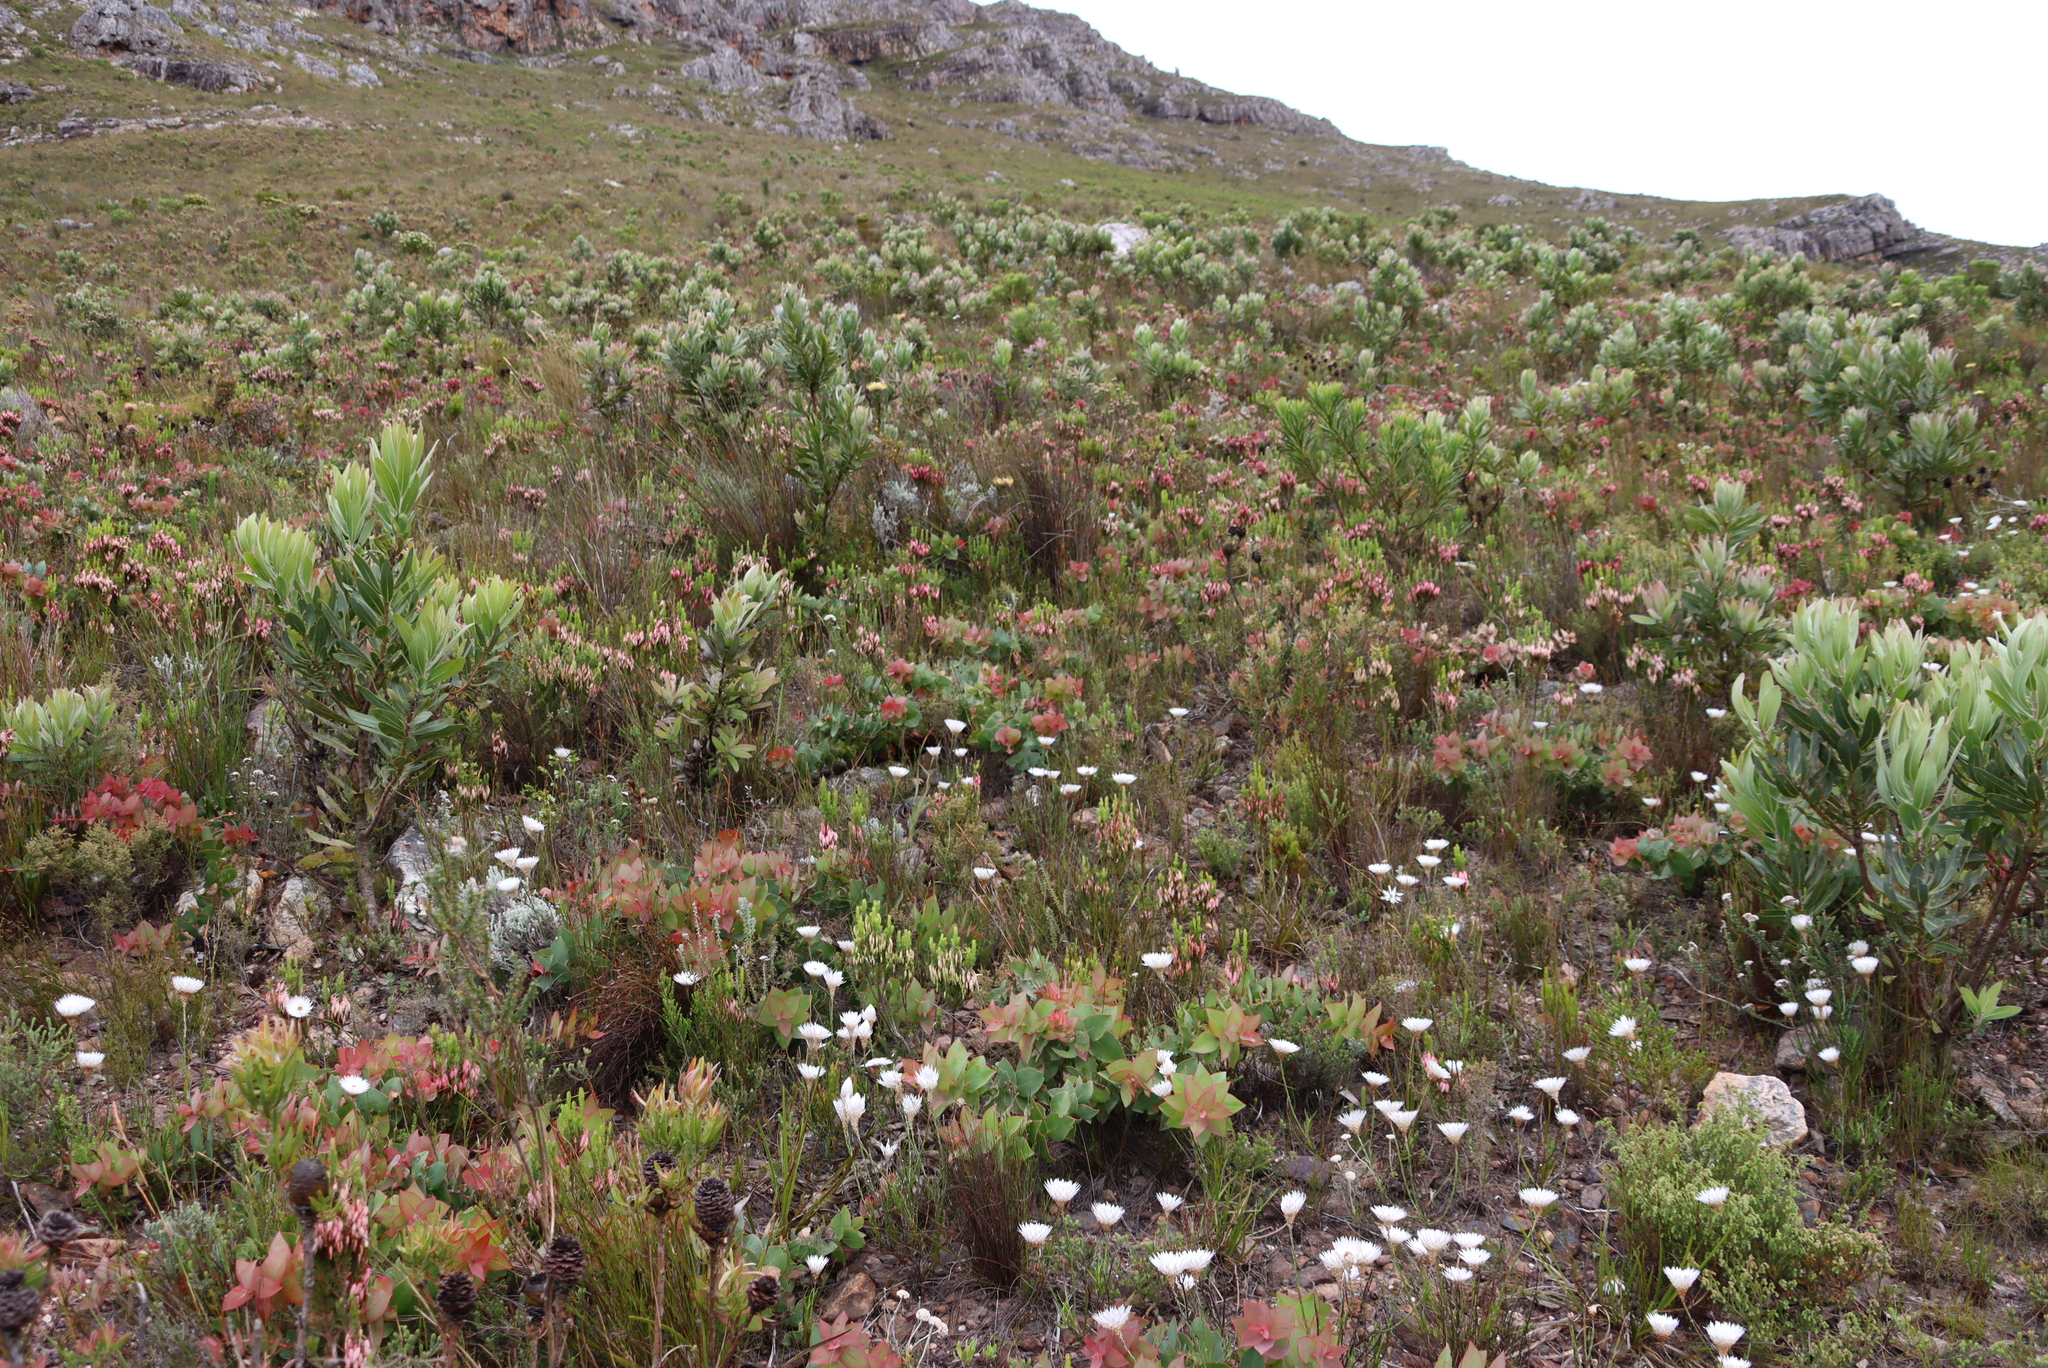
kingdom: Plantae
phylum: Tracheophyta
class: Magnoliopsida
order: Proteales
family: Proteaceae
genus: Protea
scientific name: Protea laurifolia
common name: Grey-leaf sugarbsh
